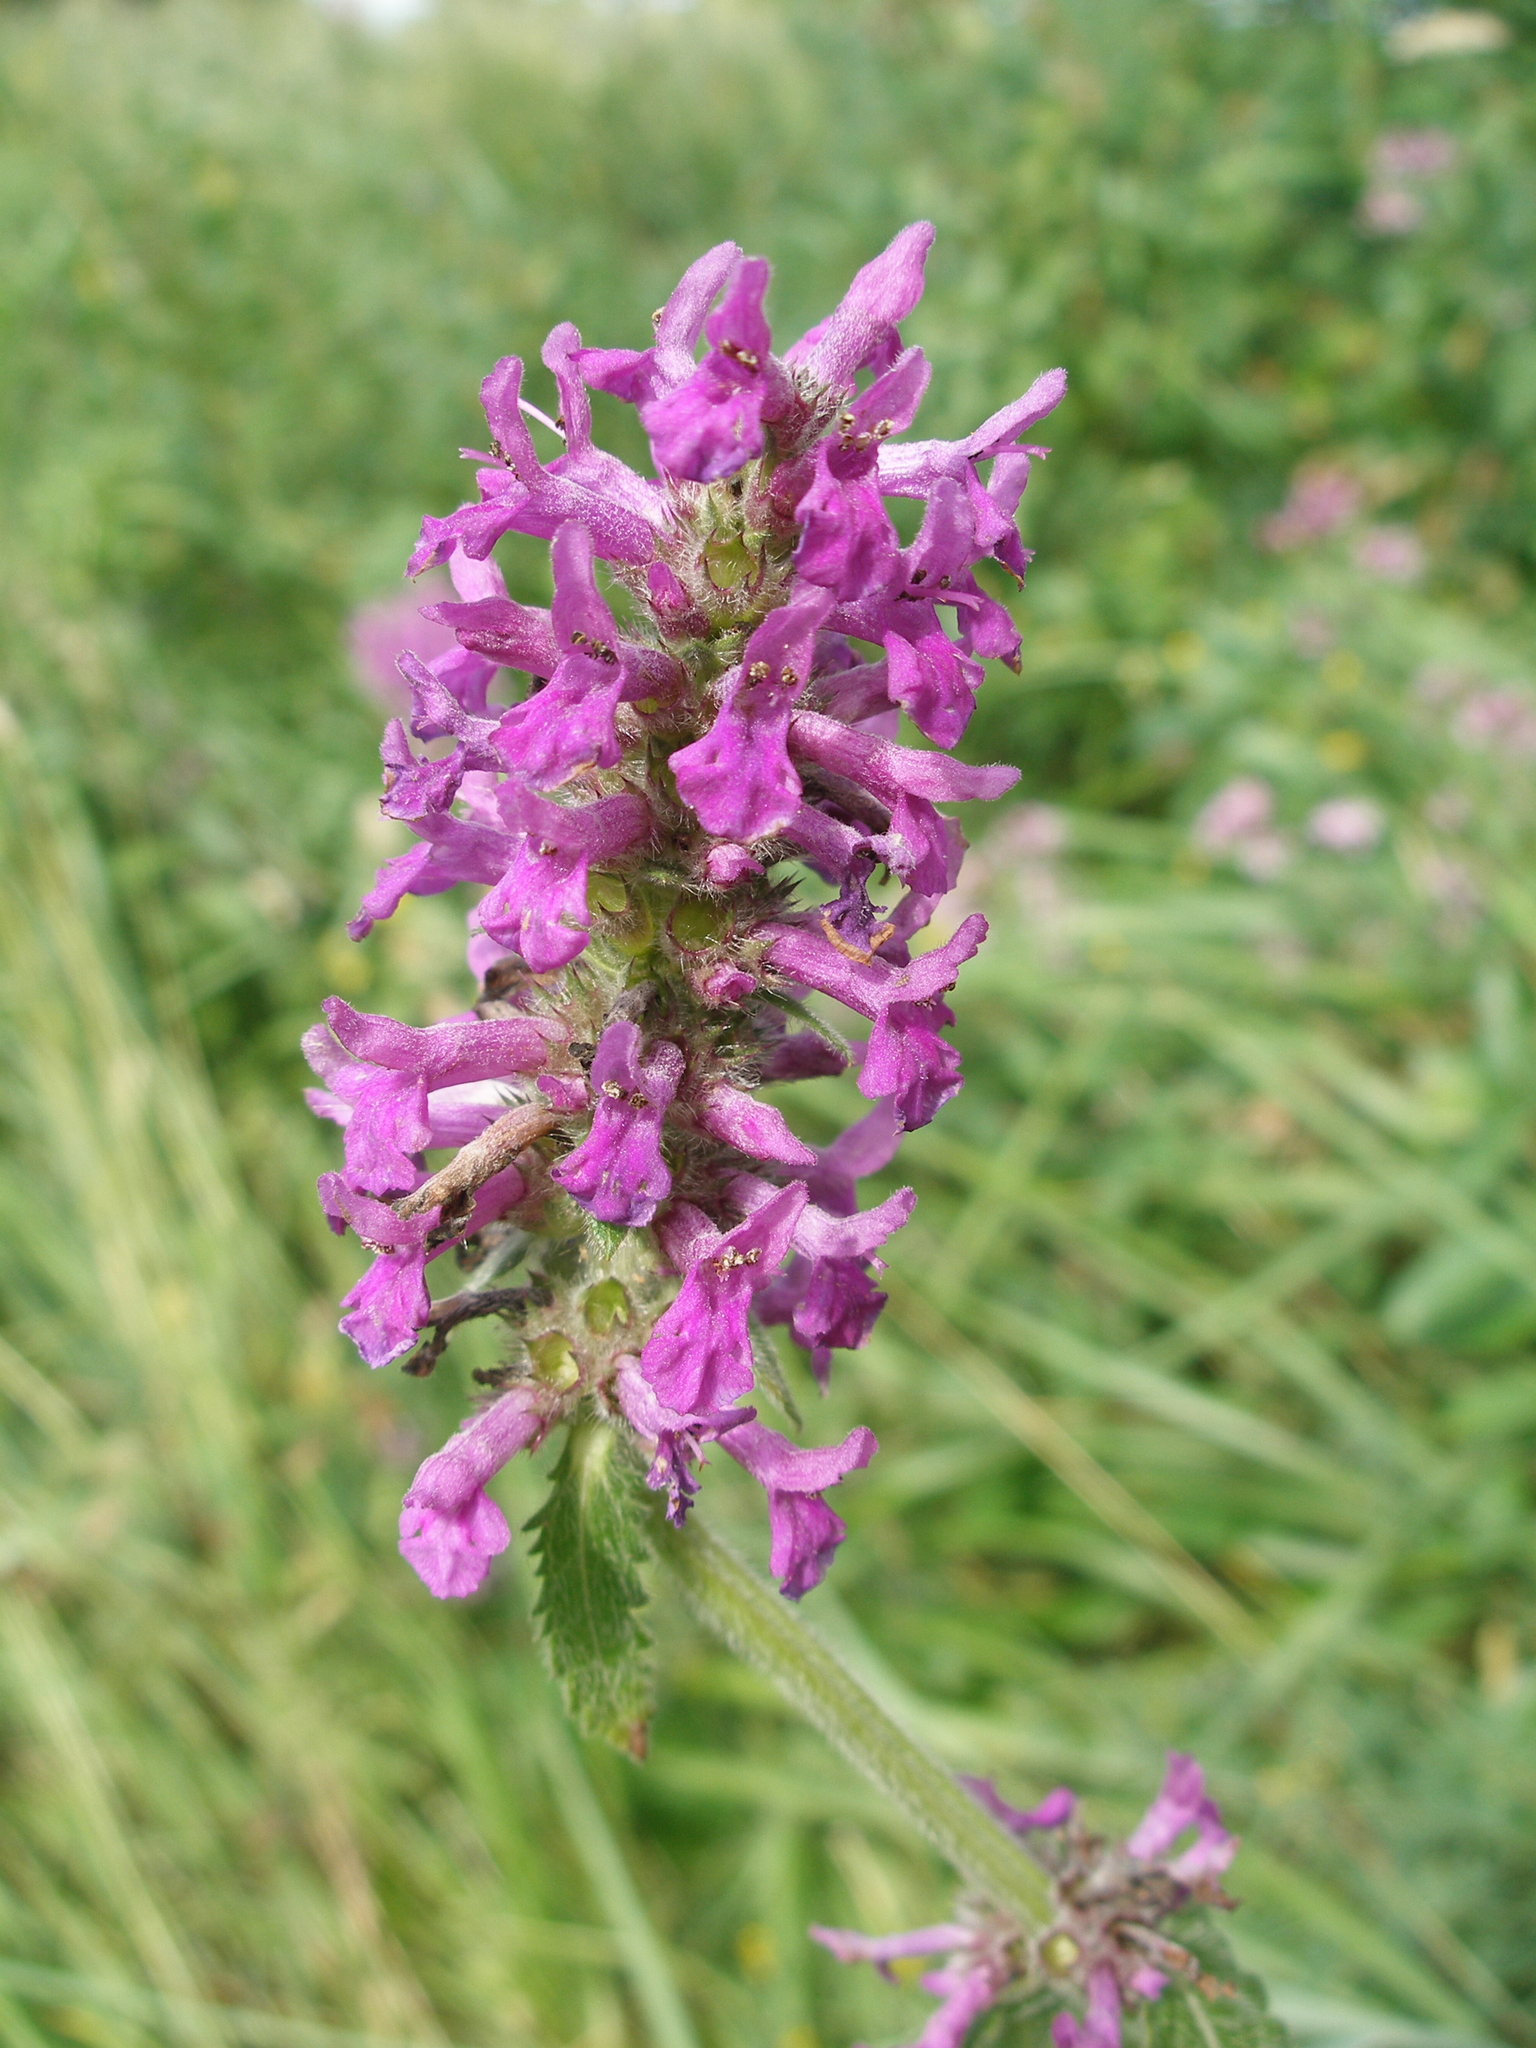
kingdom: Plantae
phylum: Tracheophyta
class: Magnoliopsida
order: Lamiales
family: Lamiaceae
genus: Betonica
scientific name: Betonica officinalis
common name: Bishop's-wort
